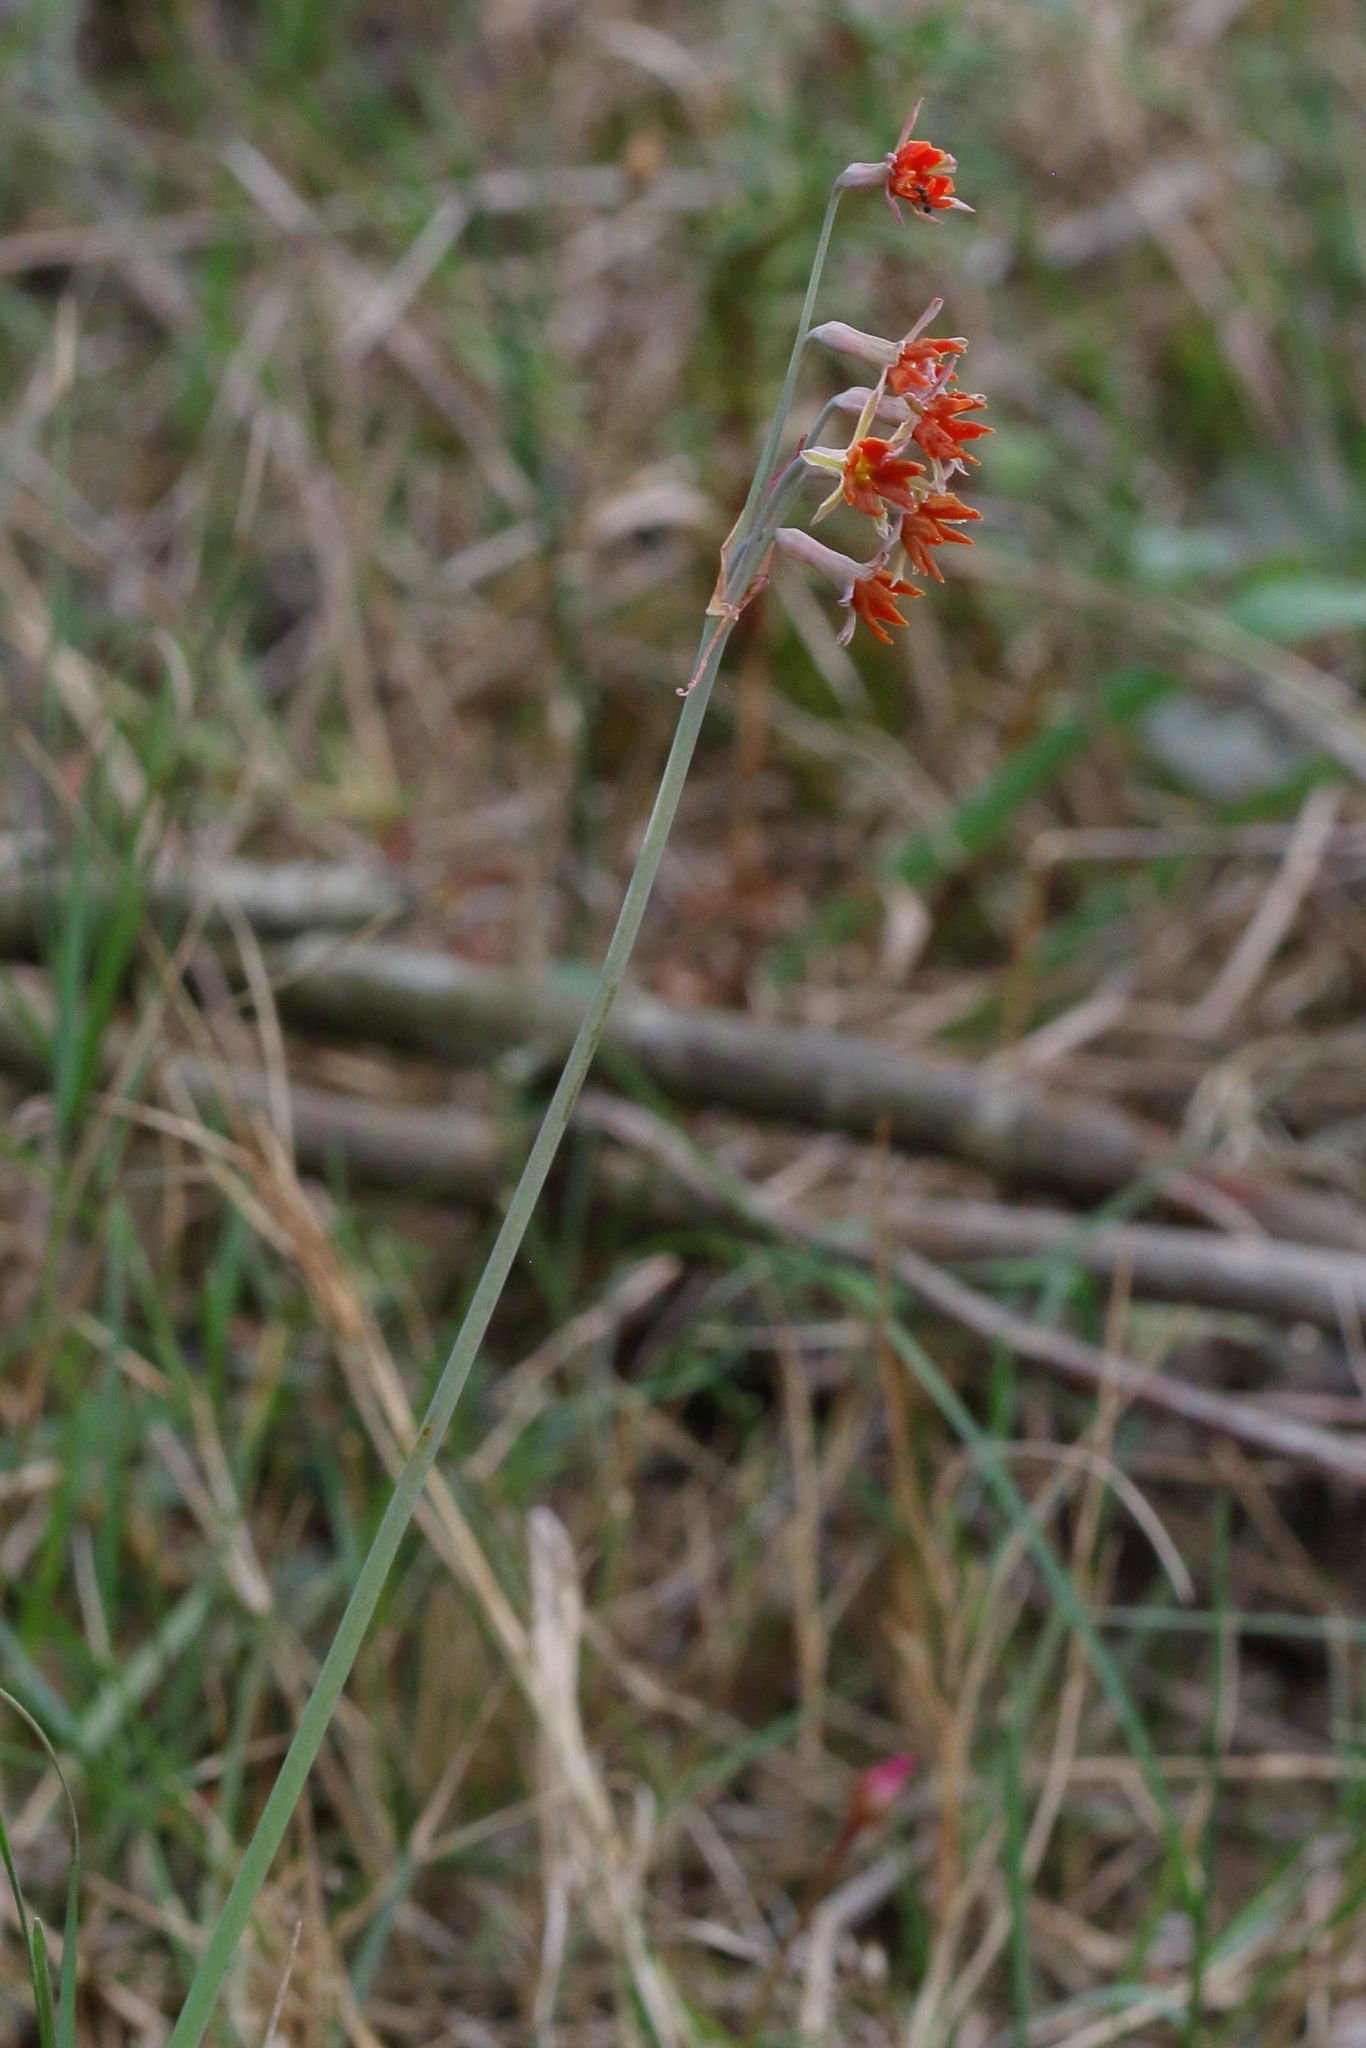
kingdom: Plantae
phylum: Tracheophyta
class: Liliopsida
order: Asparagales
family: Amaryllidaceae
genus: Tulbaghia
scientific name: Tulbaghia capensis
